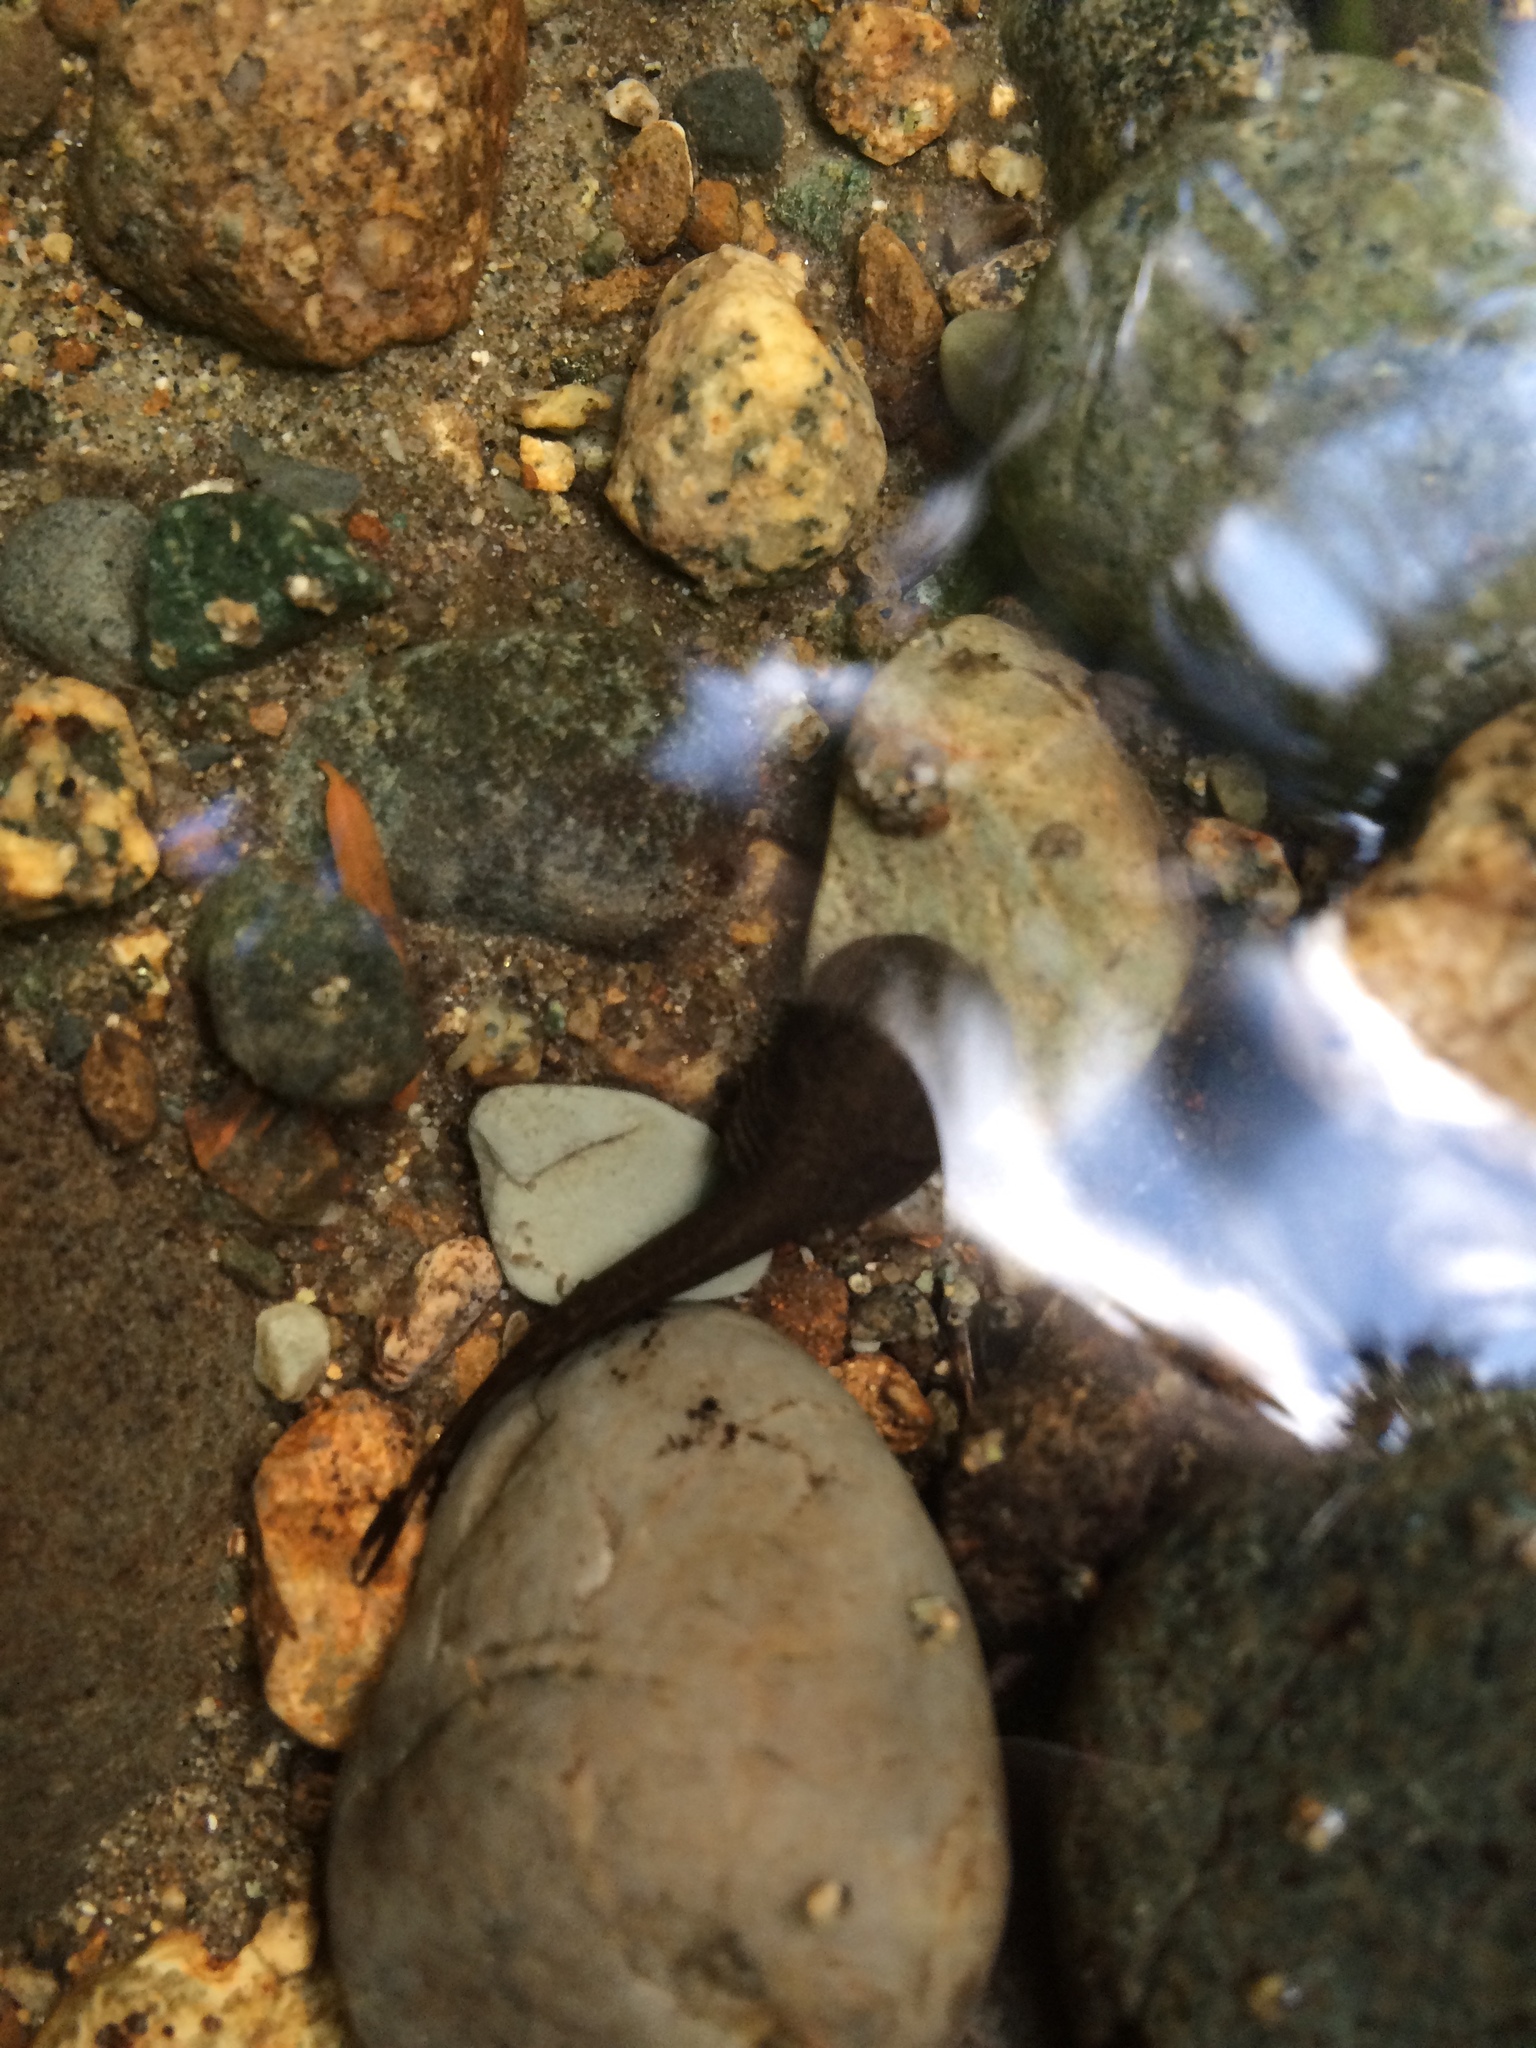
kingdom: Animalia
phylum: Chordata
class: Amphibia
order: Anura
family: Ascaphidae
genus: Ascaphus
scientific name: Ascaphus truei
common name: Tailed frog
